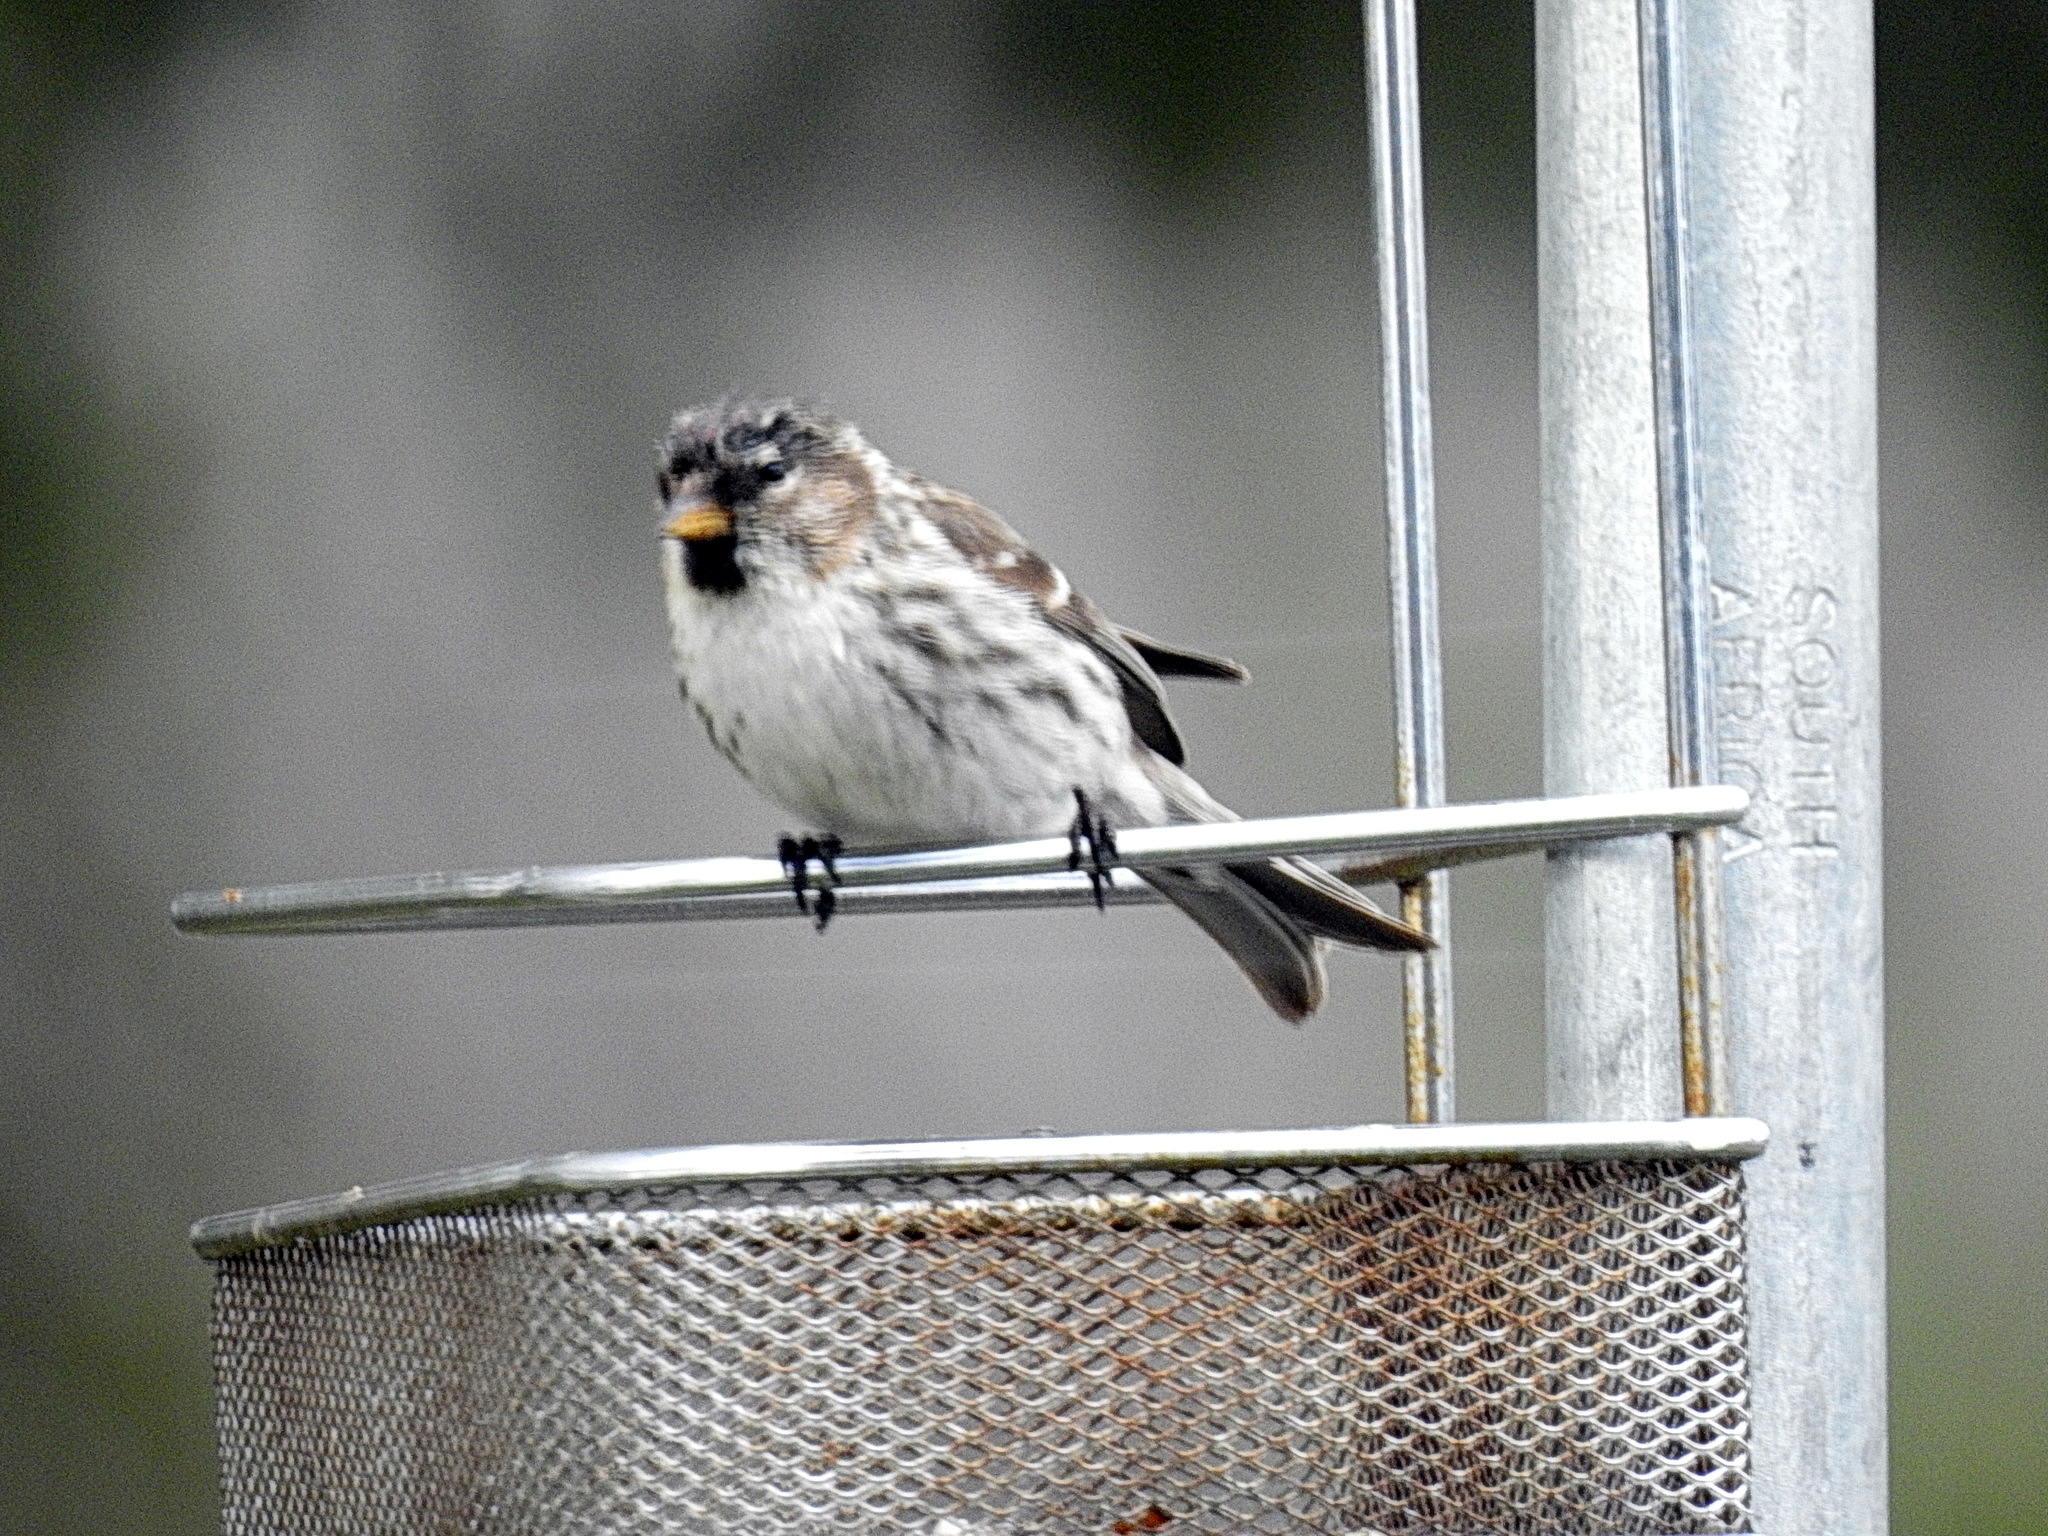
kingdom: Animalia
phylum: Chordata
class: Aves
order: Passeriformes
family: Fringillidae
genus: Acanthis
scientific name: Acanthis flammea
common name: Common redpoll
